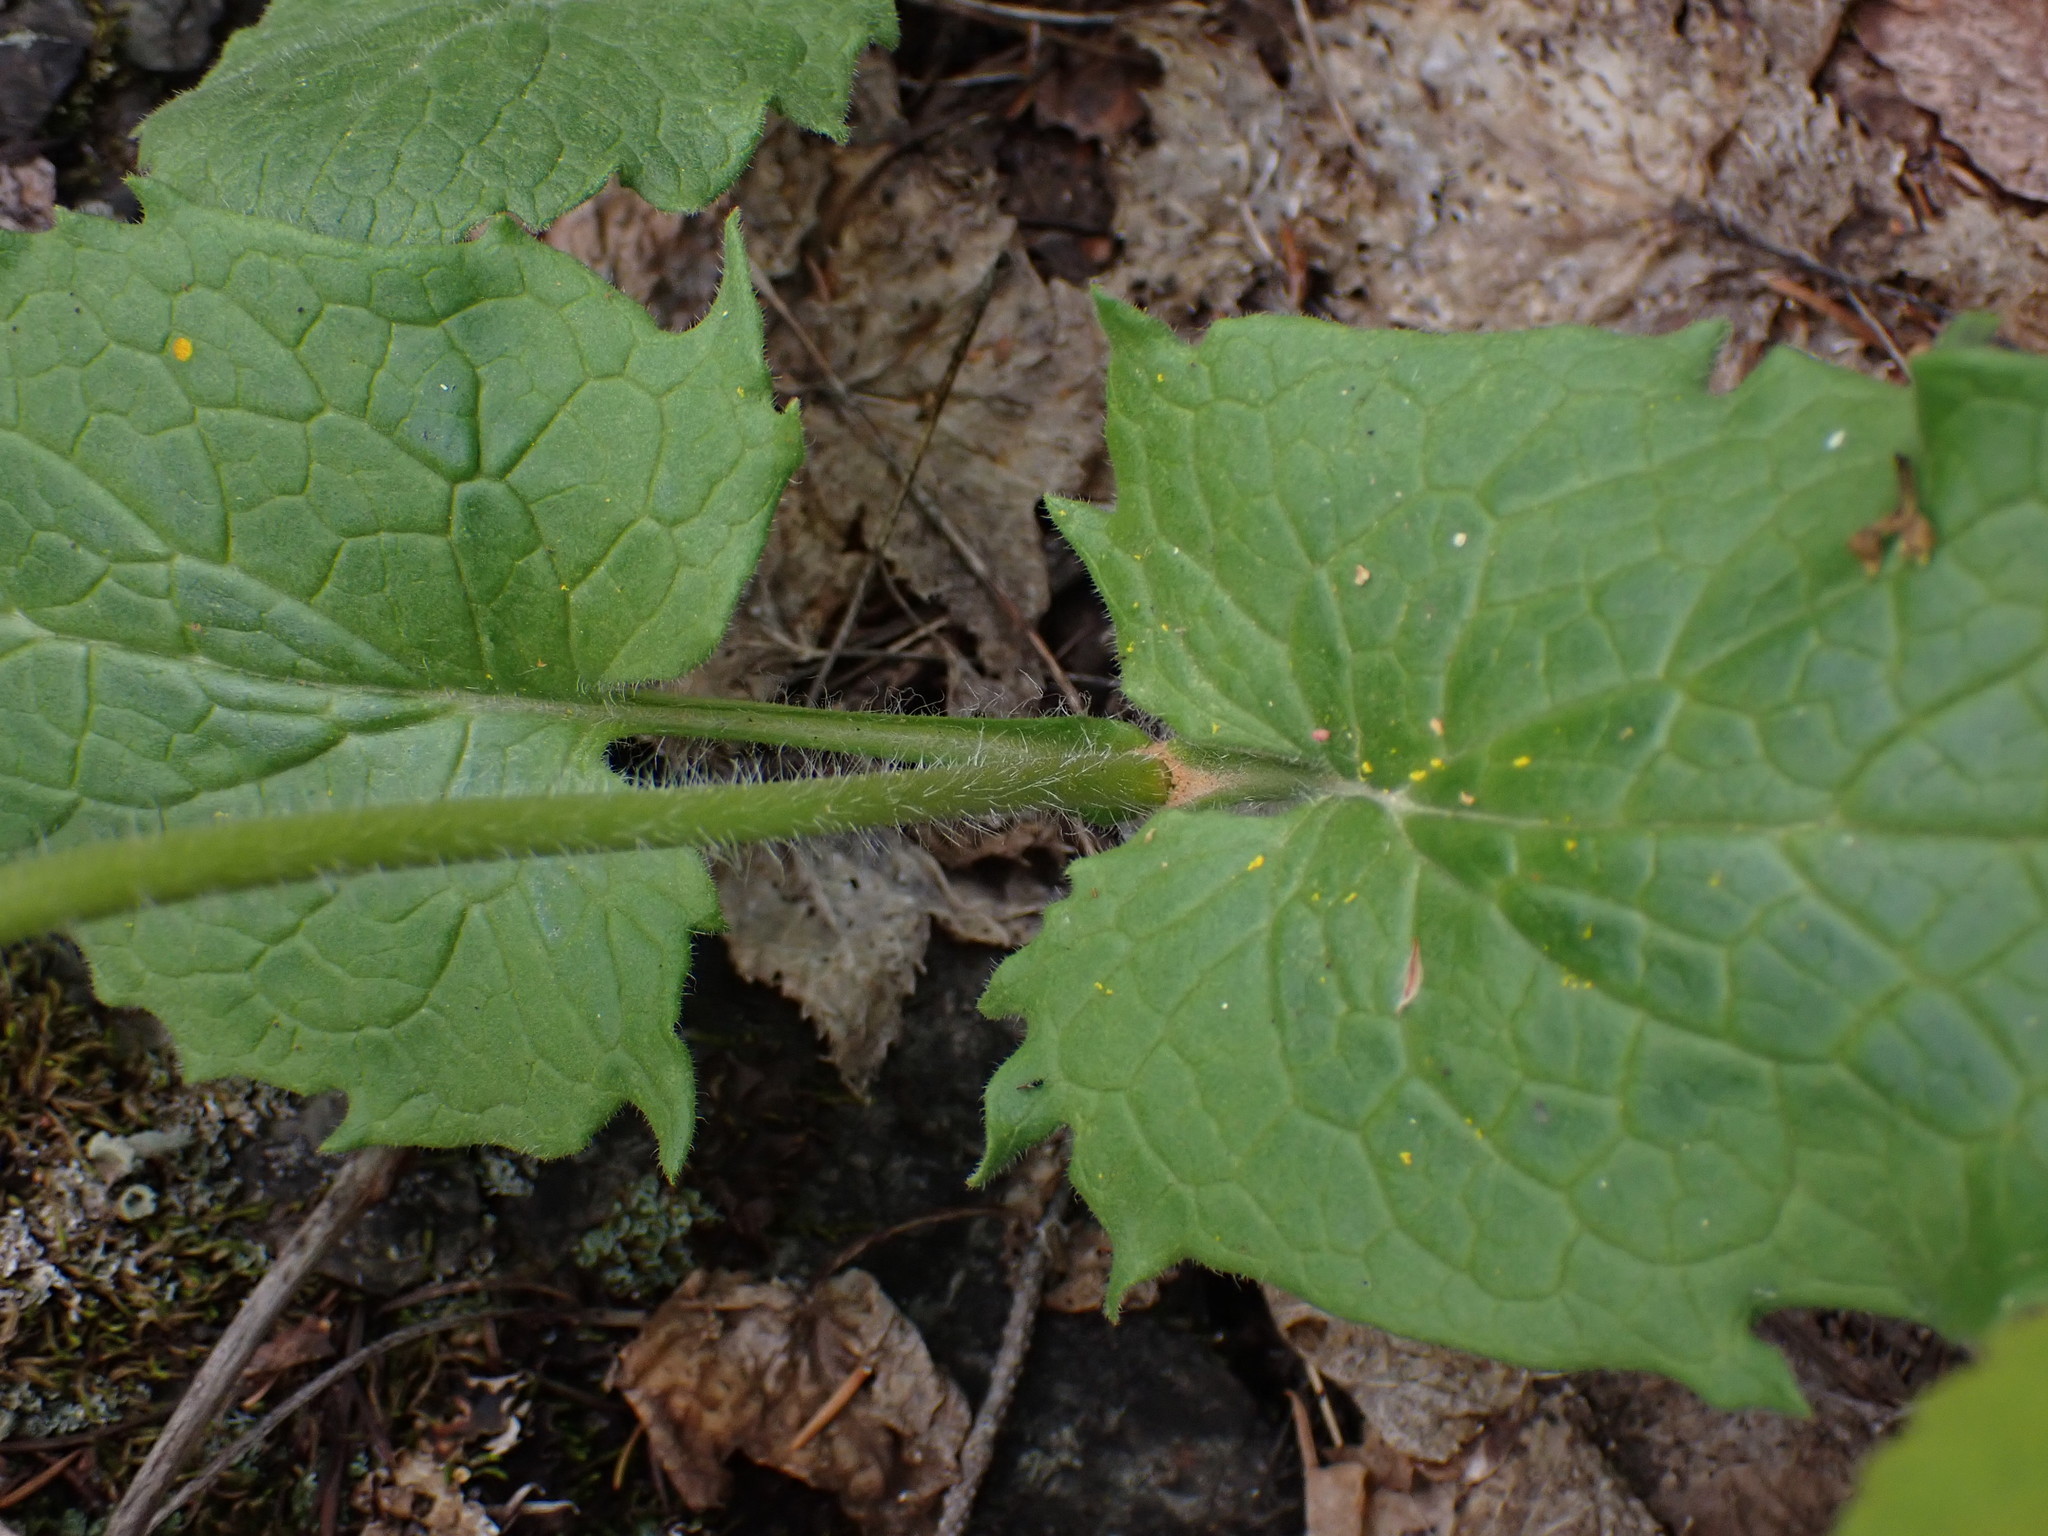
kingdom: Plantae
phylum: Tracheophyta
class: Magnoliopsida
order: Asterales
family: Asteraceae
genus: Arnica
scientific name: Arnica cordifolia
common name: Heart-leaf arnica
